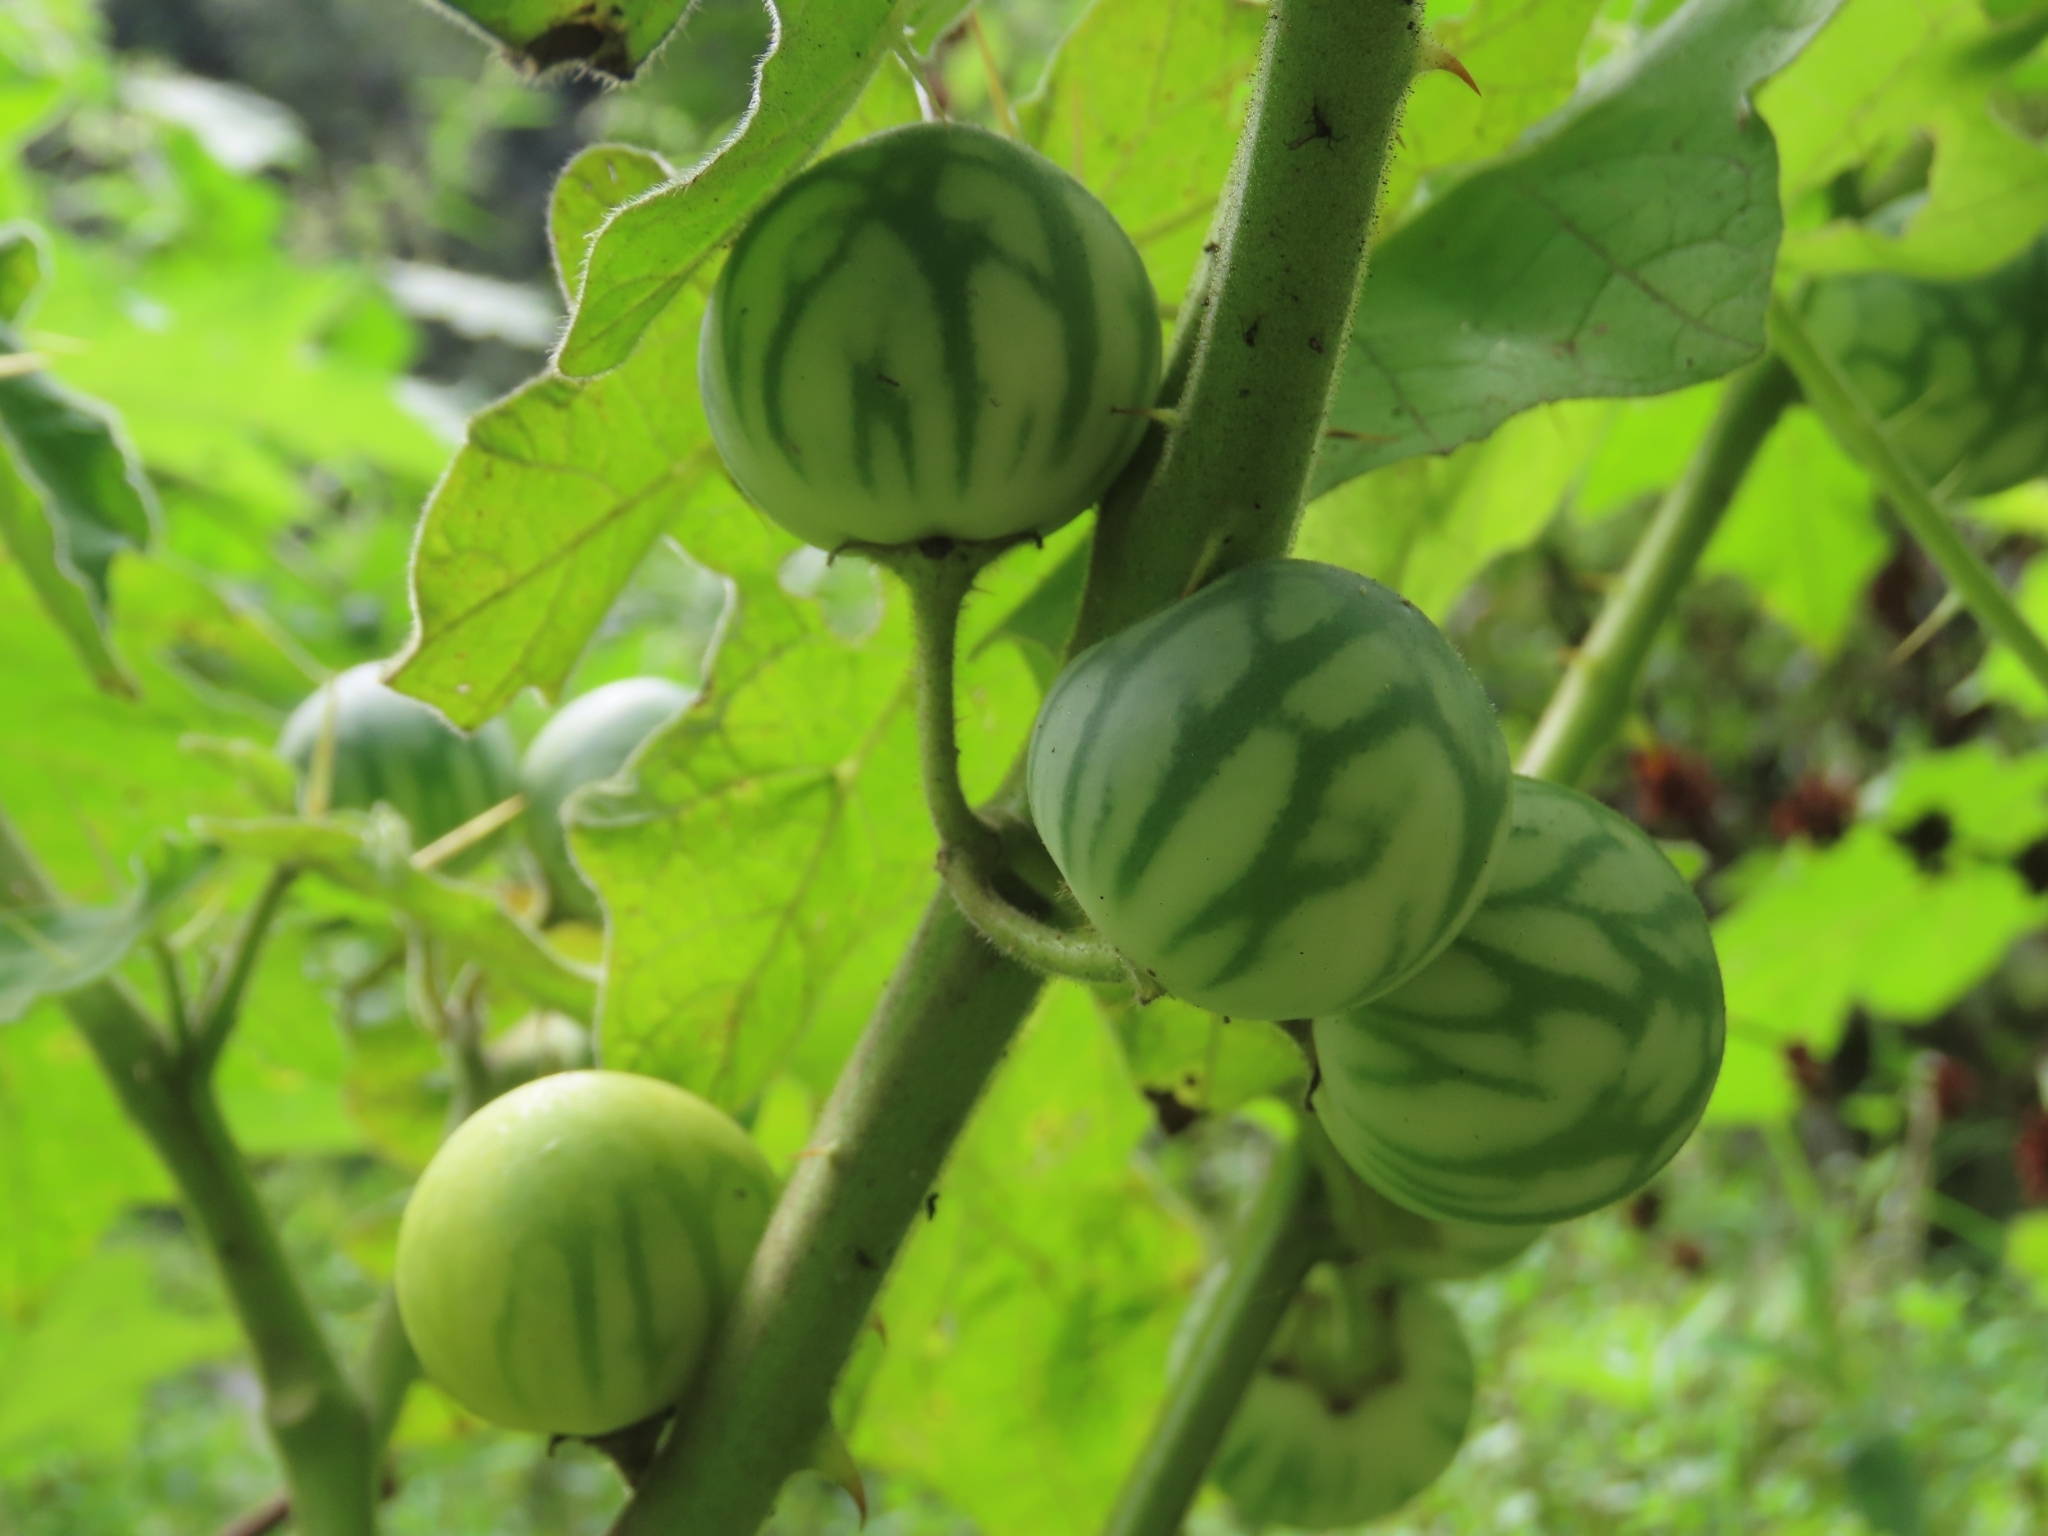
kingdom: Plantae
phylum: Tracheophyta
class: Magnoliopsida
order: Solanales
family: Solanaceae
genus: Solanum
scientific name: Solanum viarum
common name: Tropical soda apple
